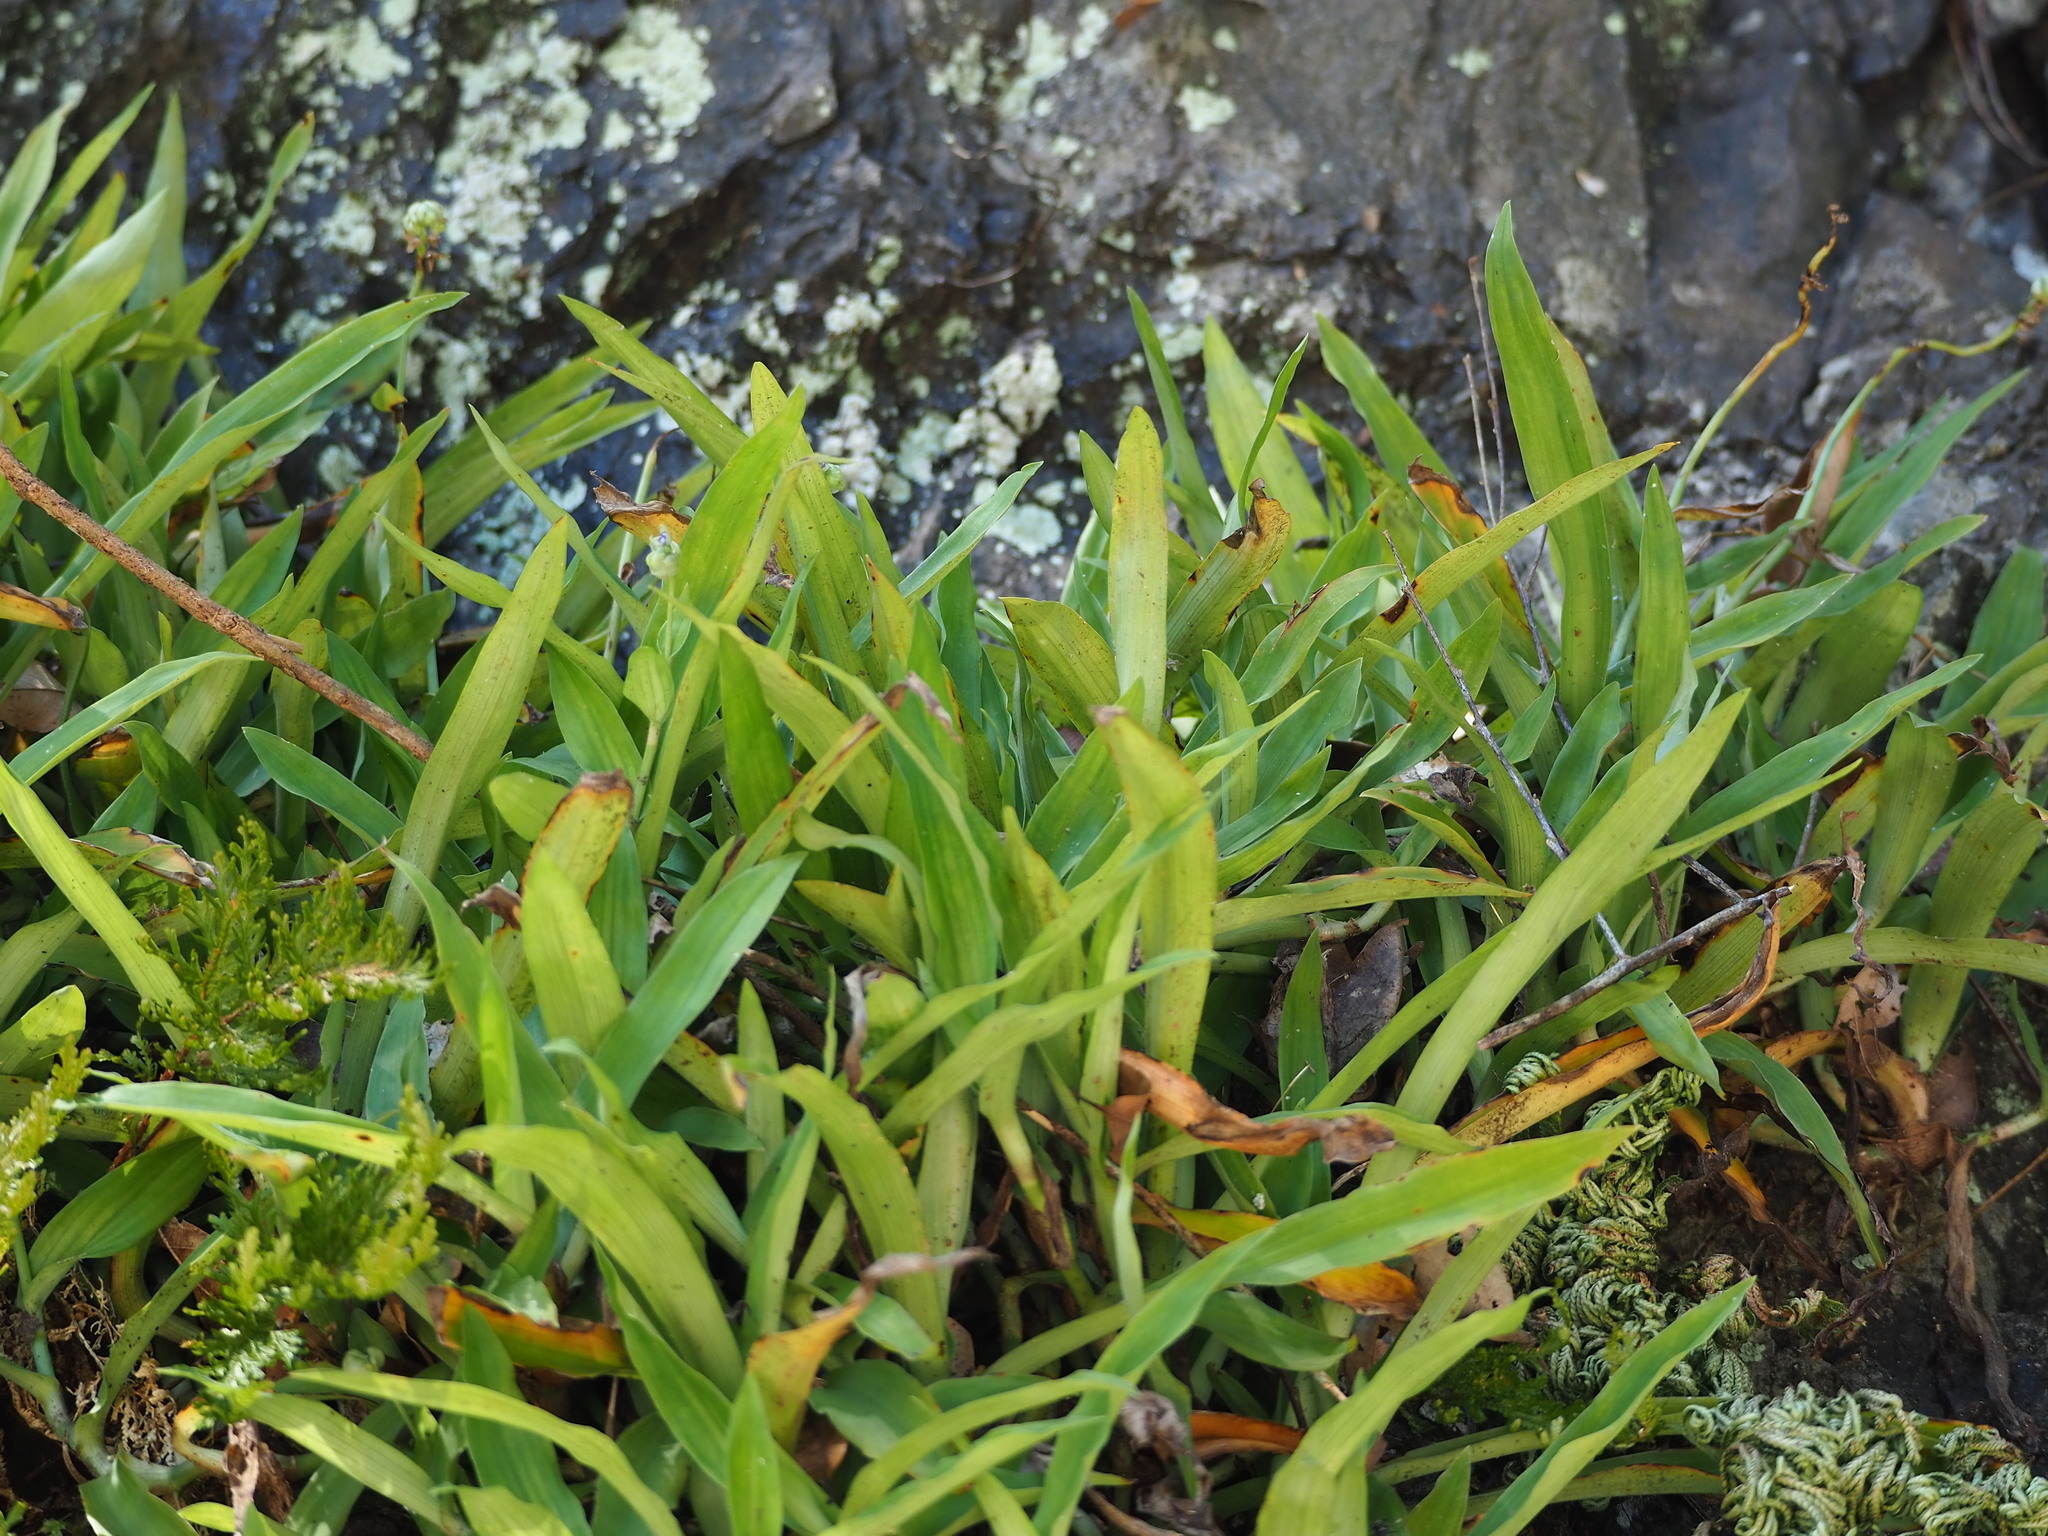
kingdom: Plantae
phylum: Tracheophyta
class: Liliopsida
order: Commelinales
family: Commelinaceae
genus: Murdannia
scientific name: Murdannia loriformis
